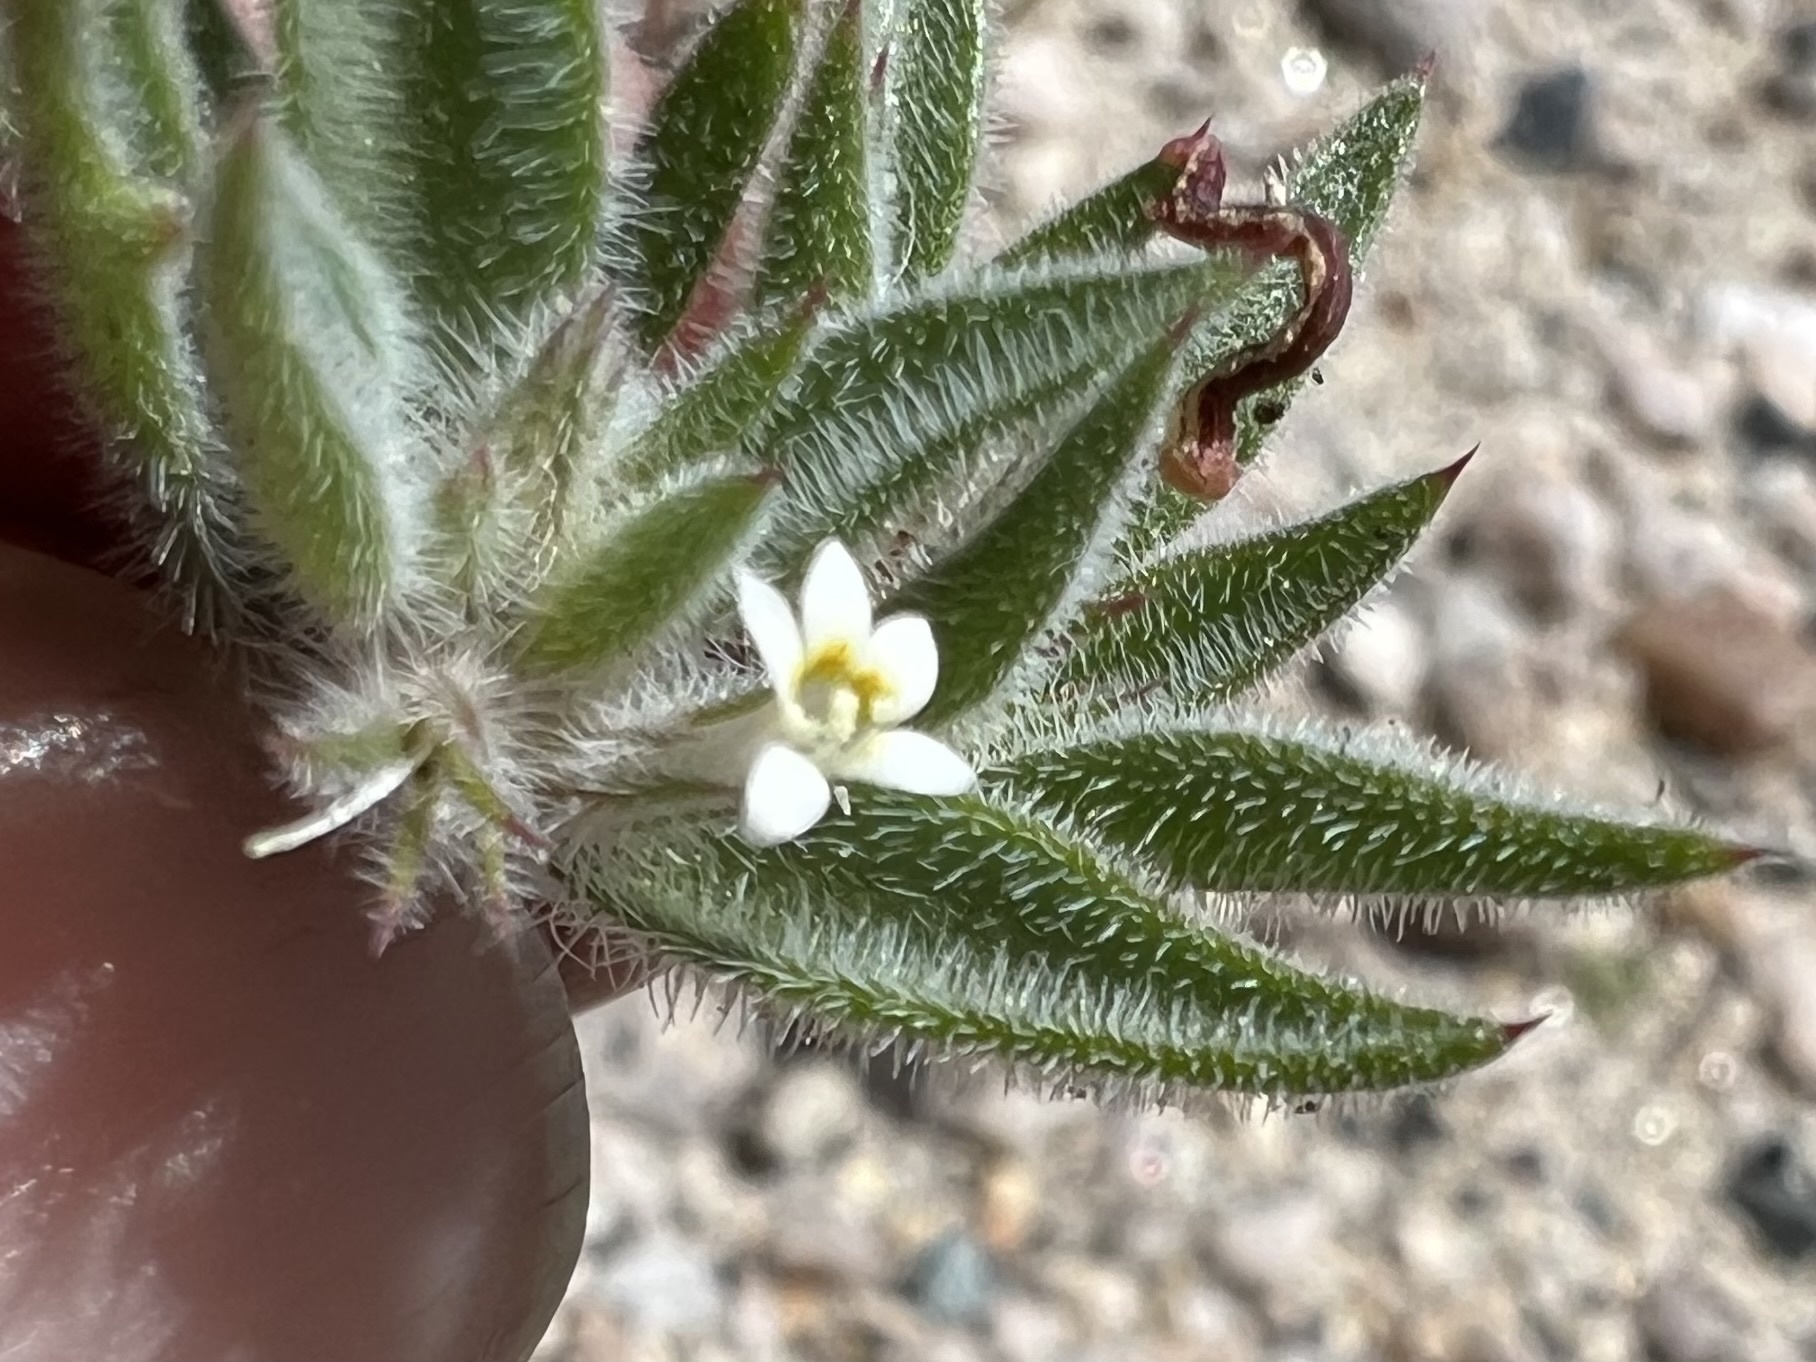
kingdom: Plantae
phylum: Tracheophyta
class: Magnoliopsida
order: Ericales
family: Polemoniaceae
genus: Loeseliastrum
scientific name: Loeseliastrum depressum
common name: Depressed ipomopsis
